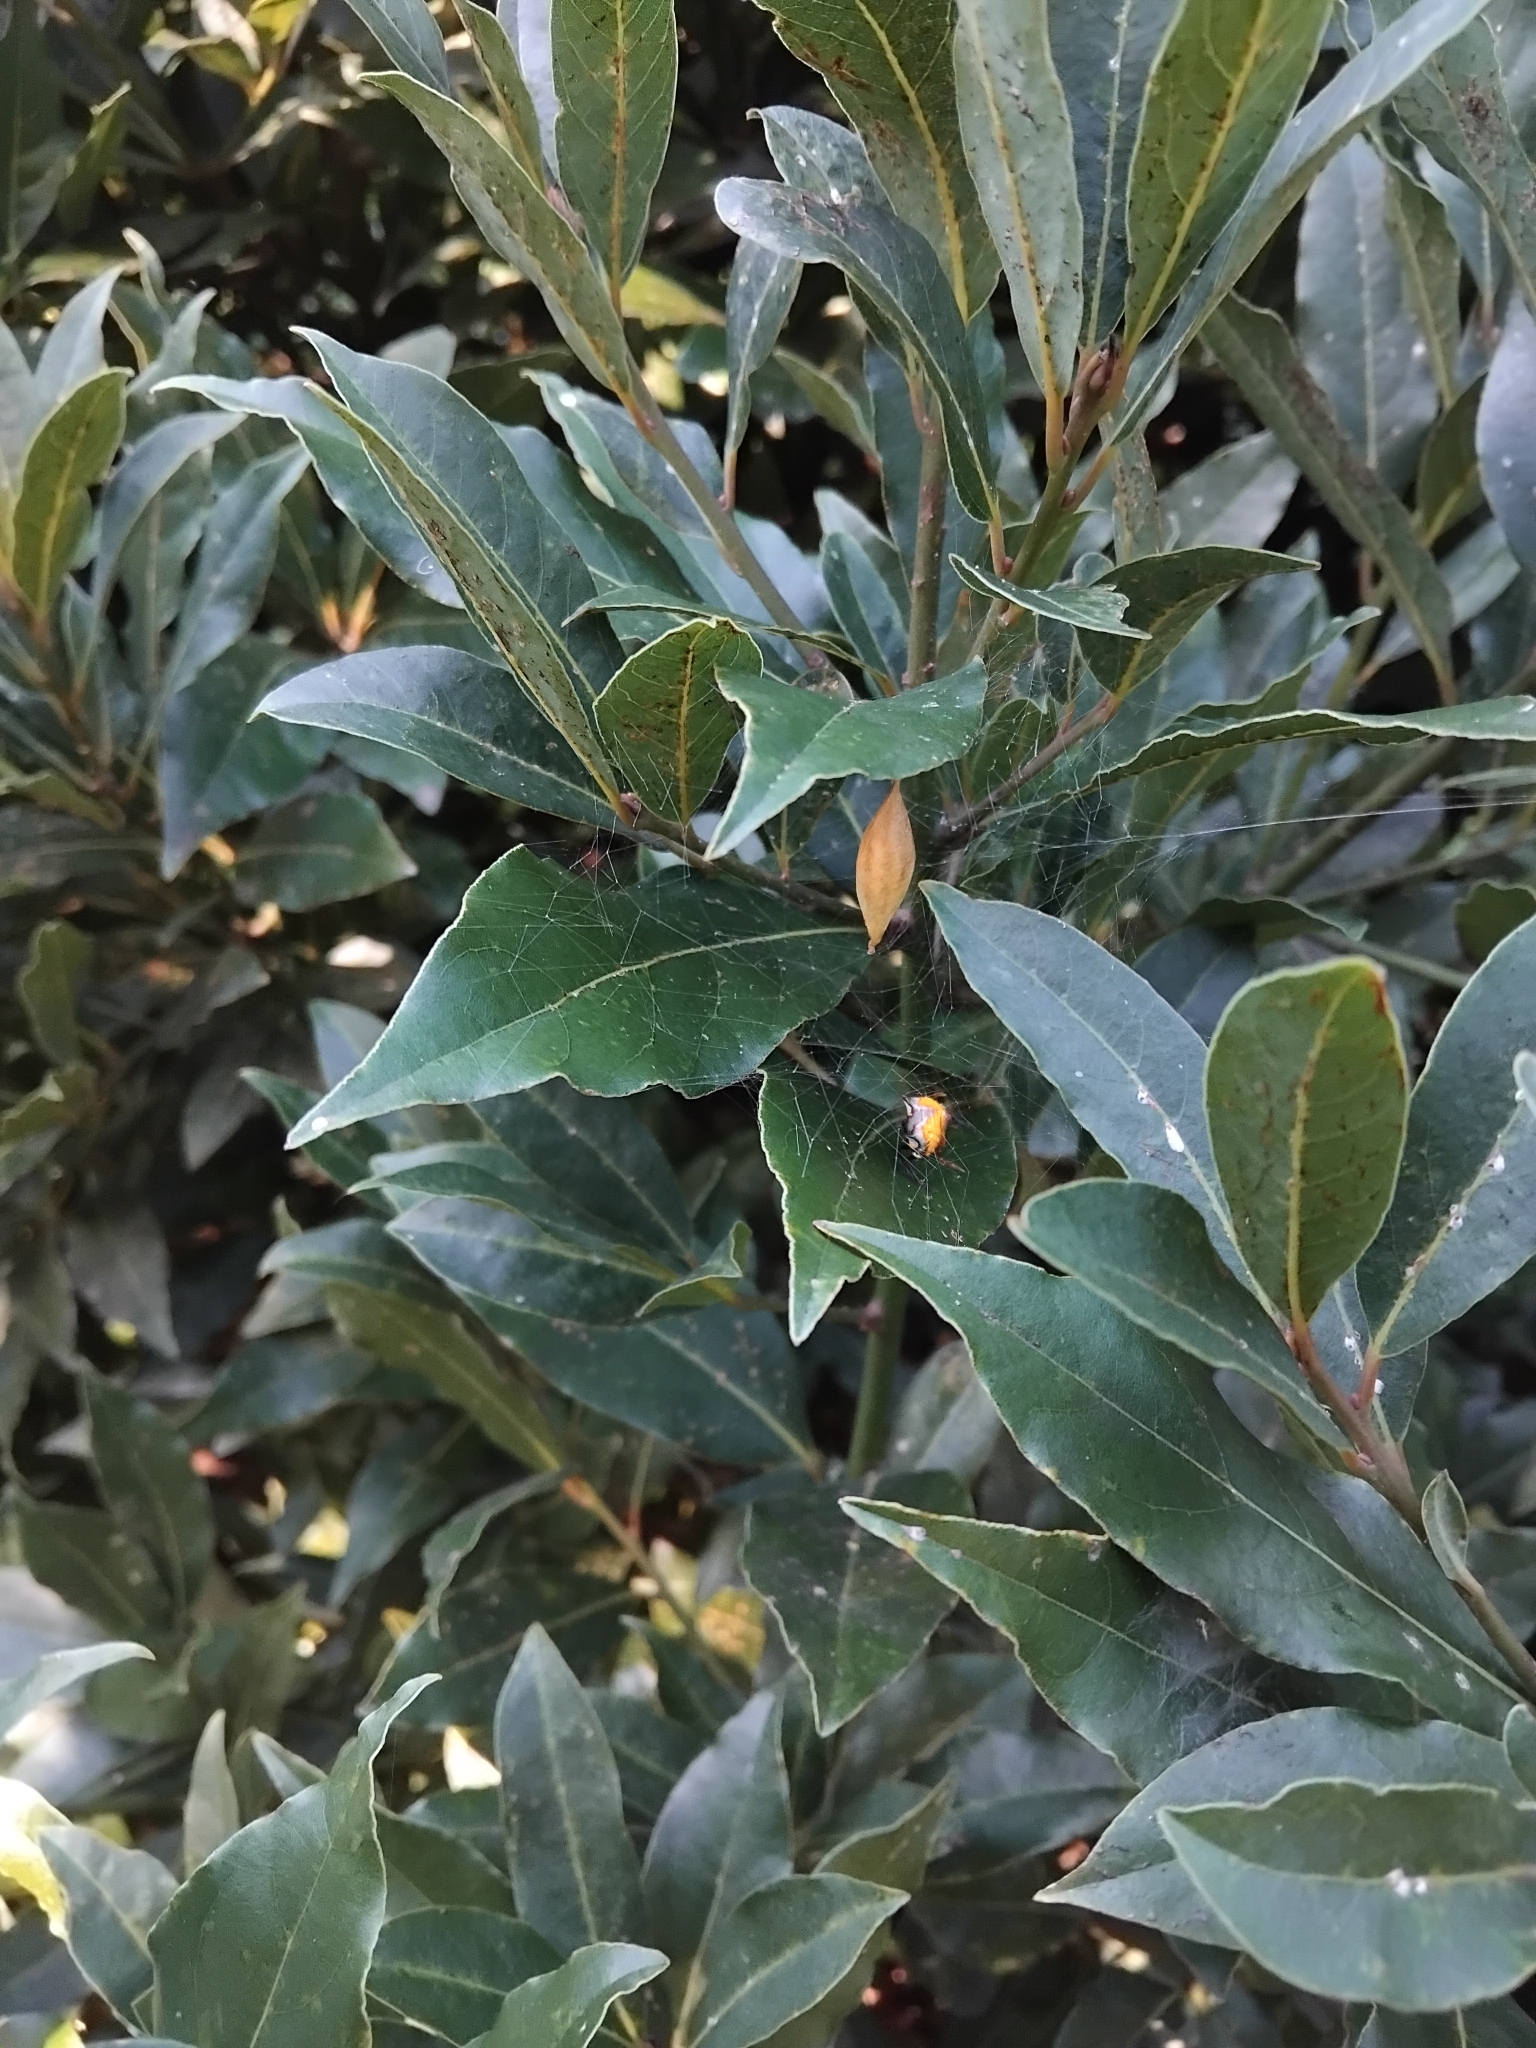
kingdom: Animalia
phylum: Arthropoda
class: Arachnida
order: Araneae
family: Araneidae
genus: Poecilopachys
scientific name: Poecilopachys australasia
